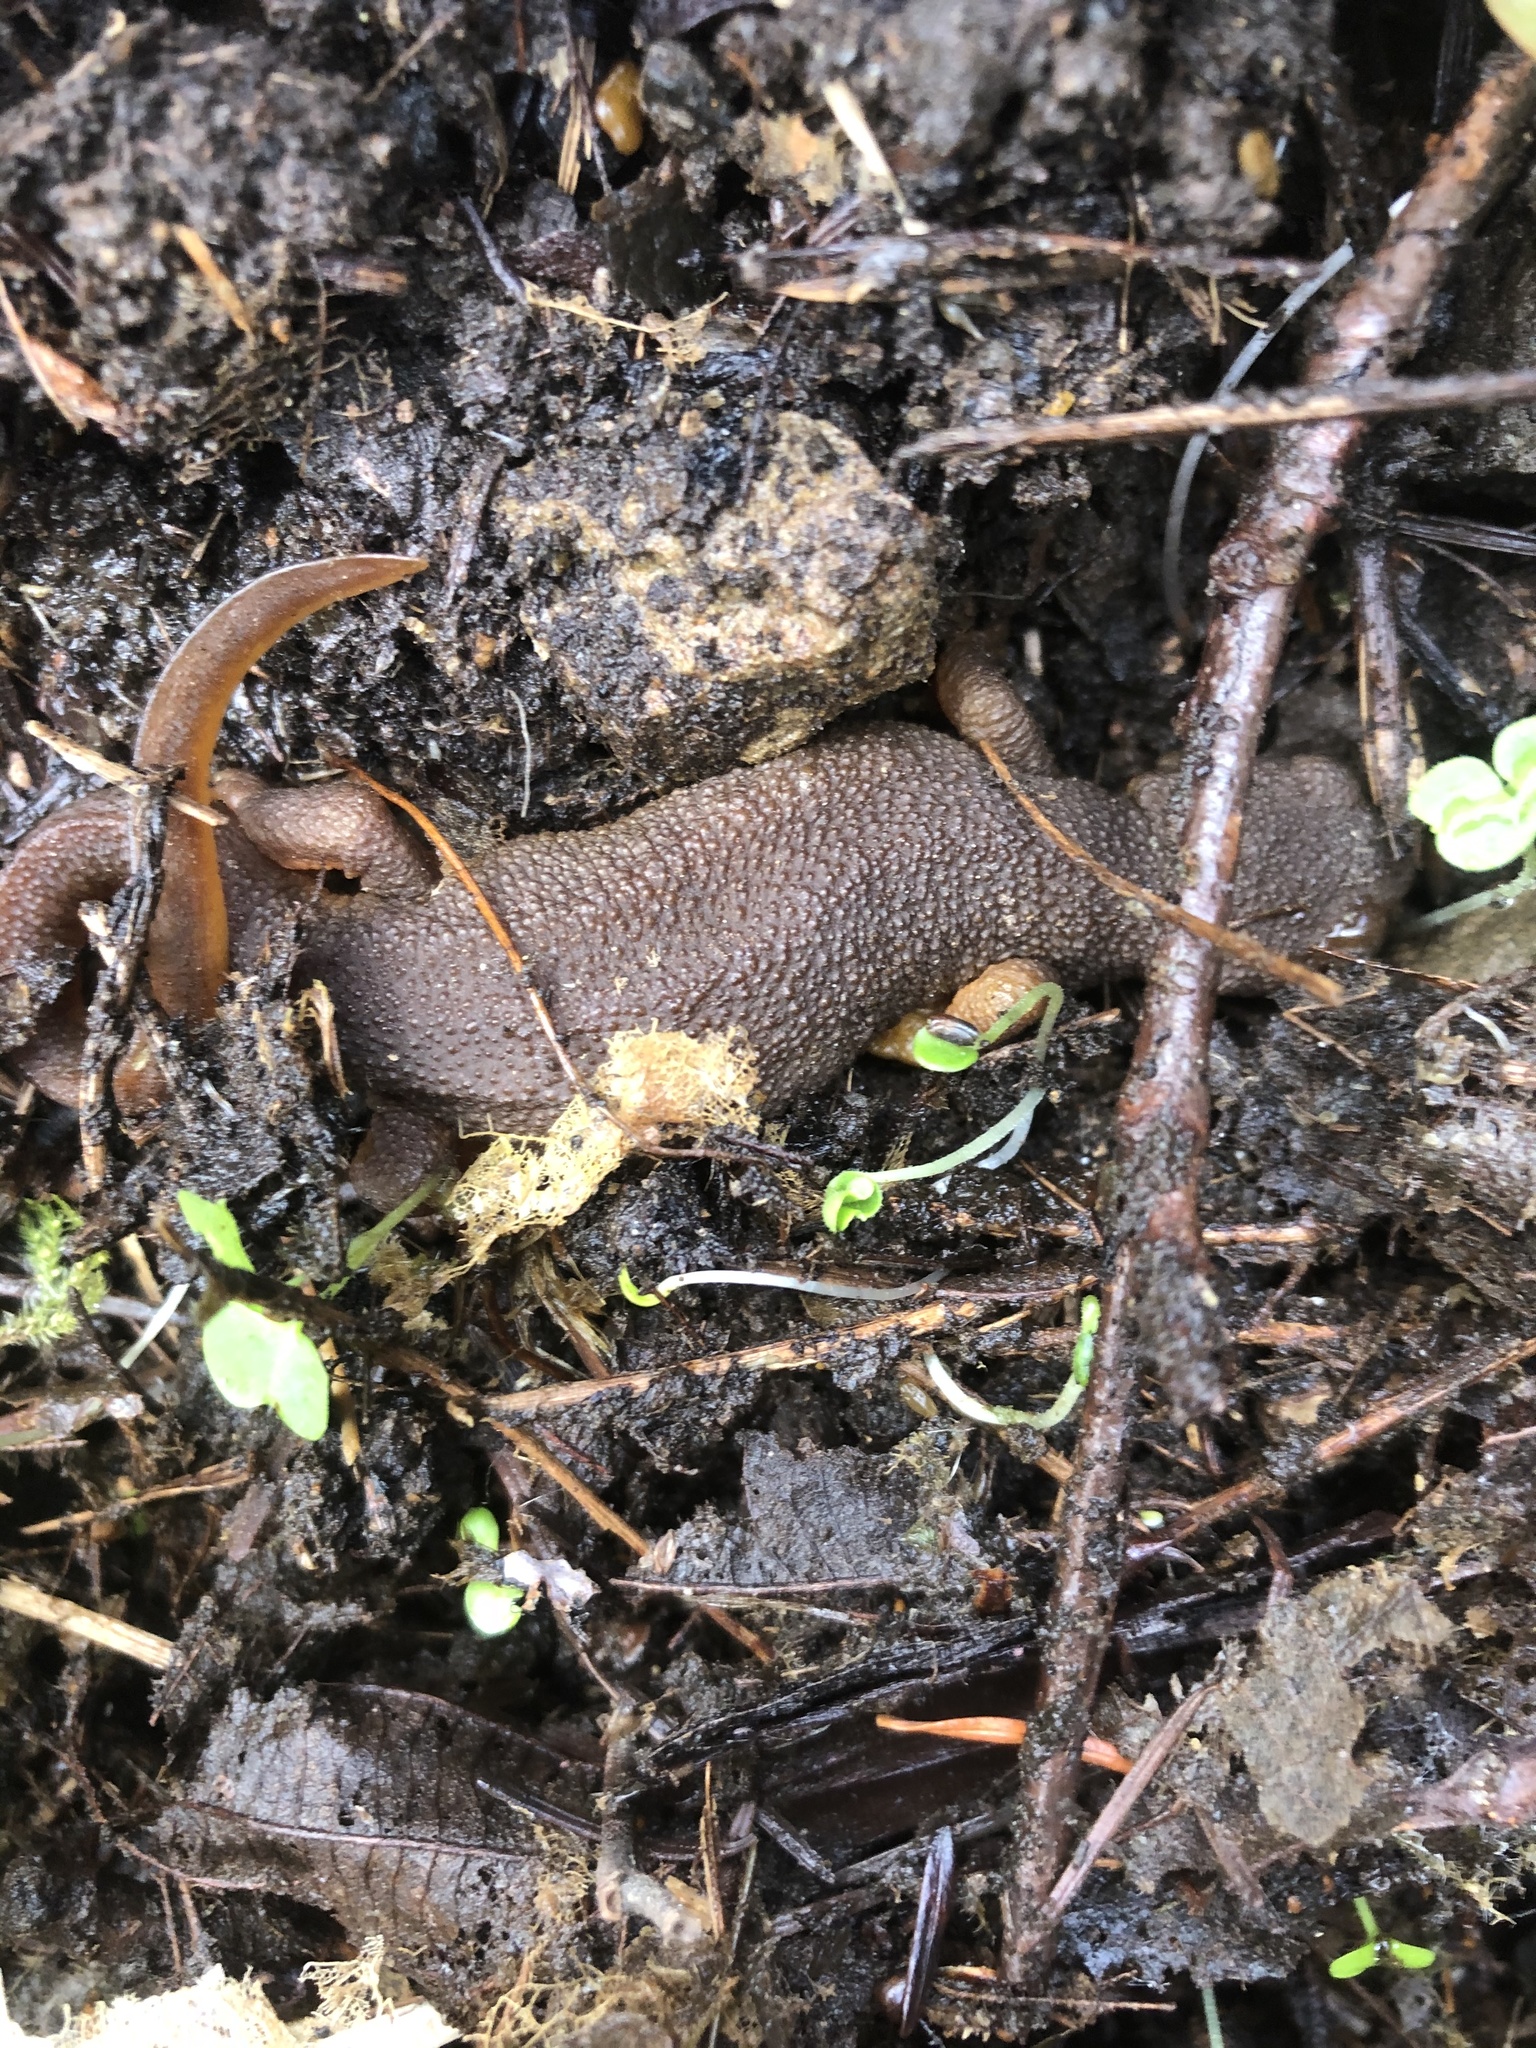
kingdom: Animalia
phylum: Chordata
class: Amphibia
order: Caudata
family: Salamandridae
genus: Taricha
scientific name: Taricha granulosa
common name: Roughskin newt
